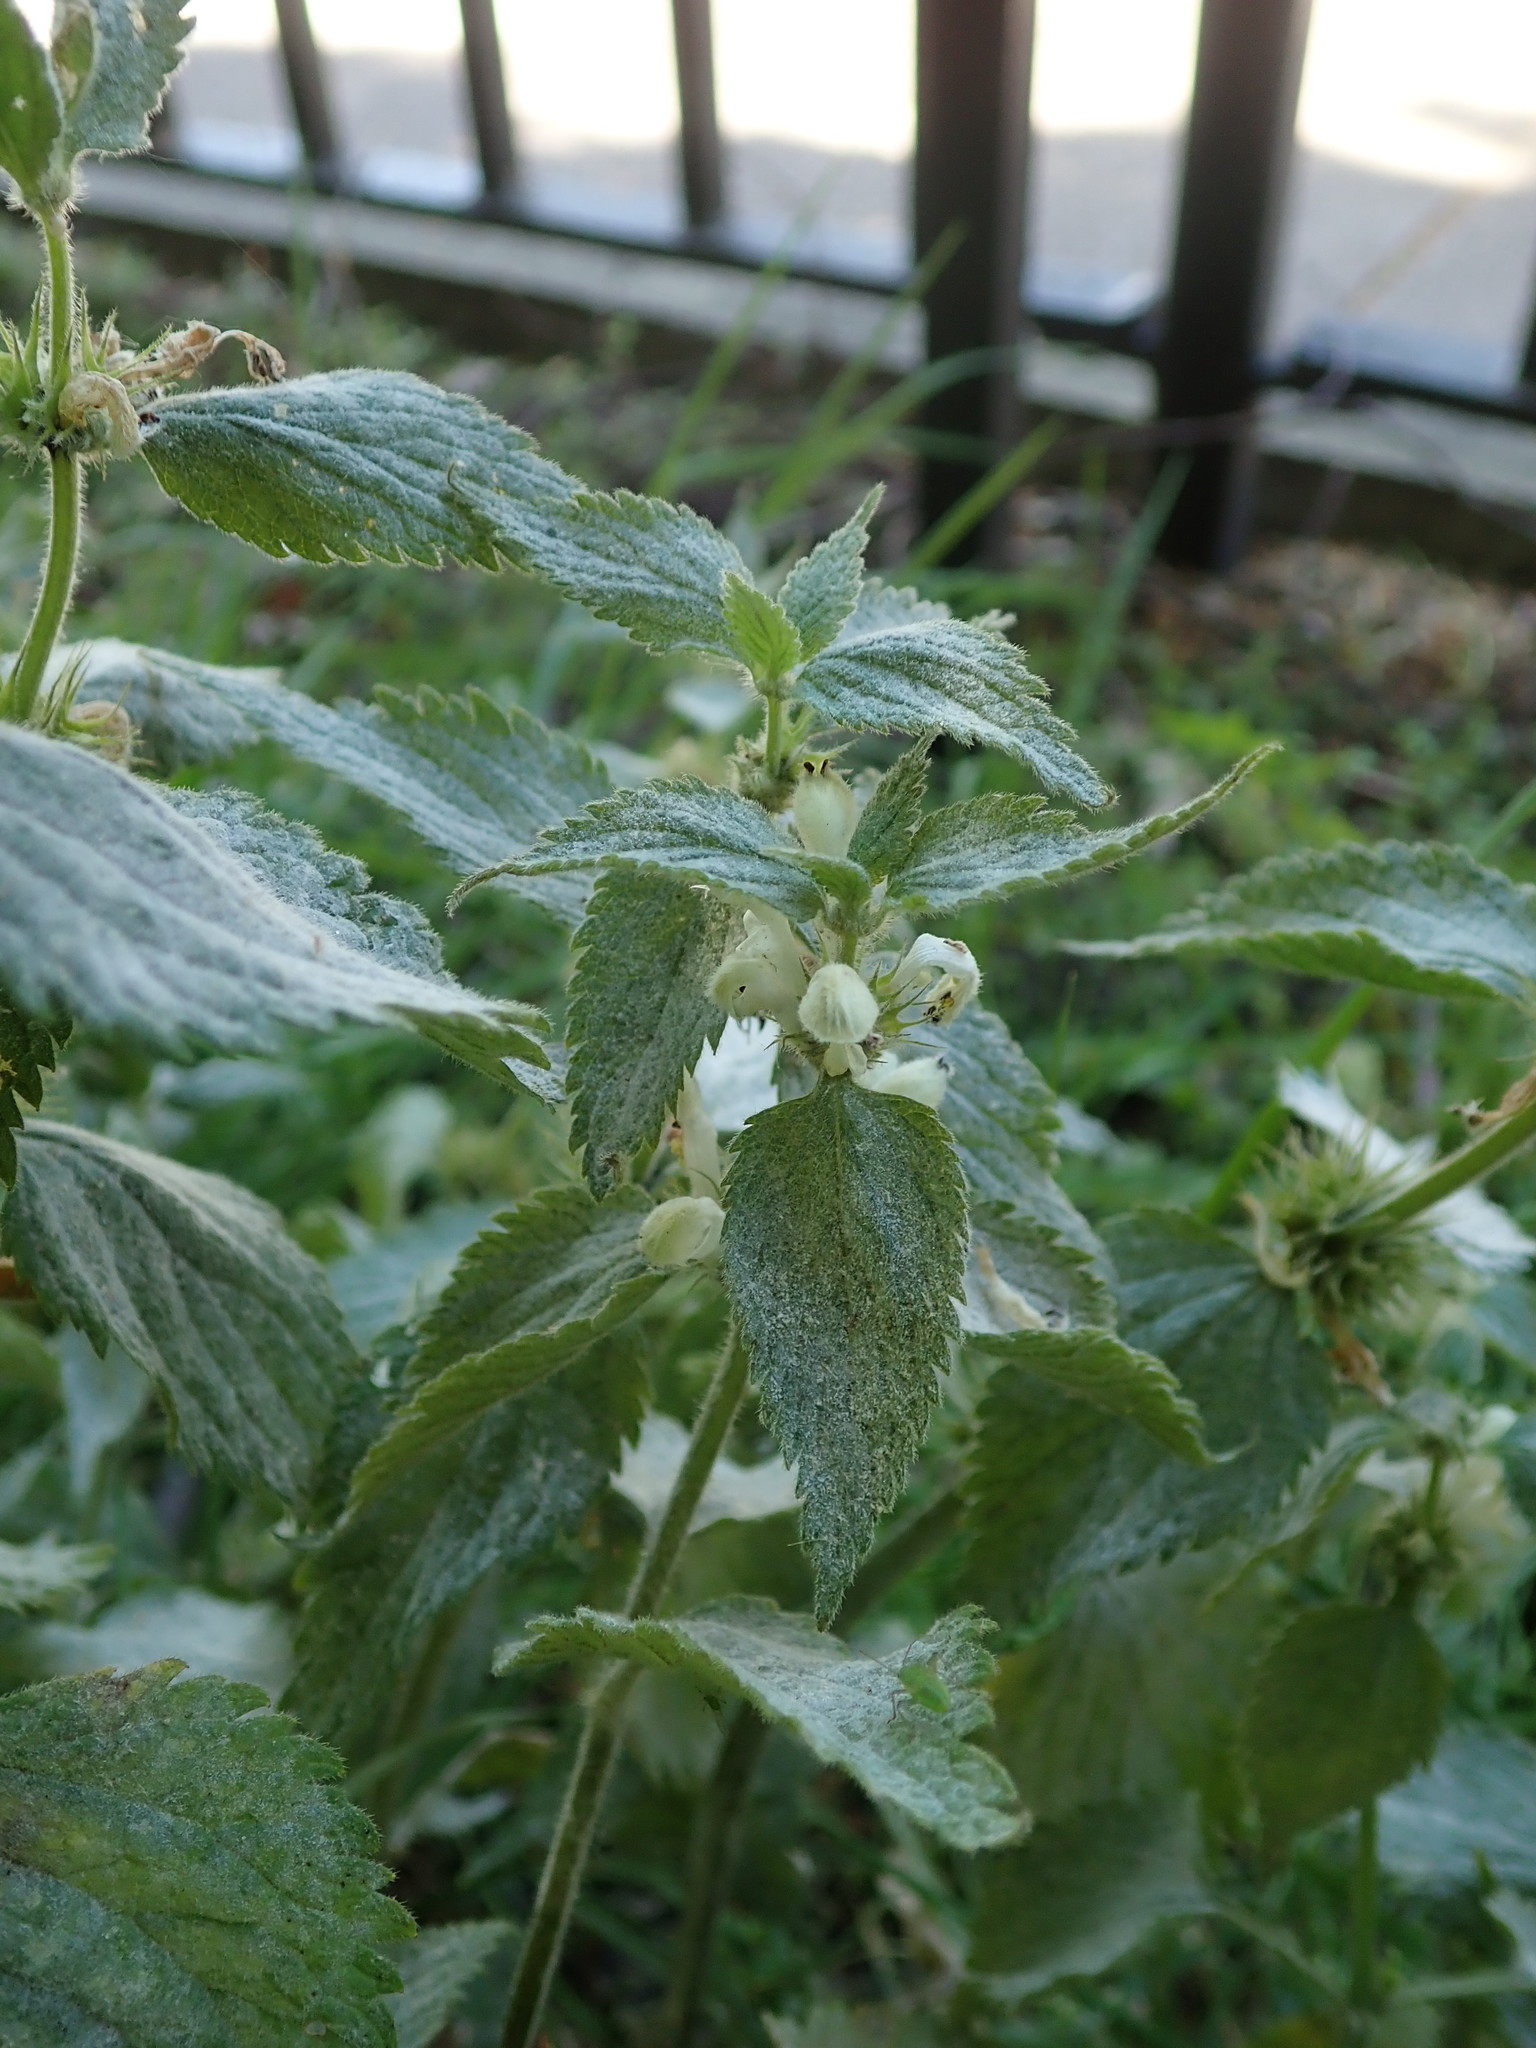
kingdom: Plantae
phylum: Tracheophyta
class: Magnoliopsida
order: Lamiales
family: Lamiaceae
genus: Lamium
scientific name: Lamium album
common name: White dead-nettle
